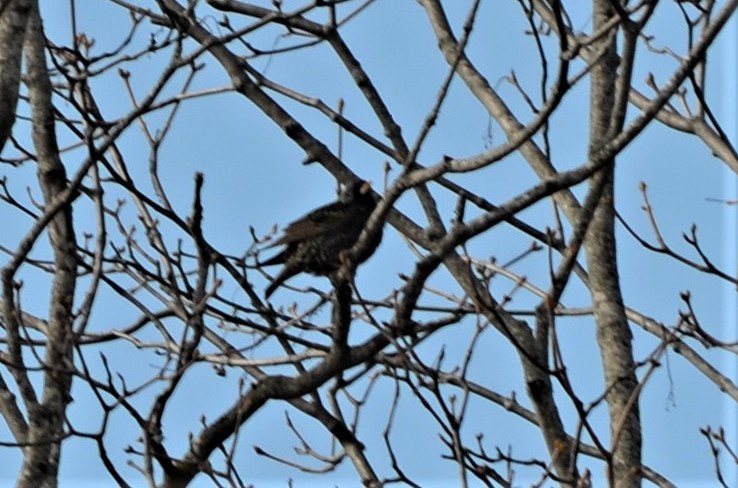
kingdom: Animalia
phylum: Chordata
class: Aves
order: Passeriformes
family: Sturnidae
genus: Sturnus
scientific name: Sturnus vulgaris
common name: Common starling
